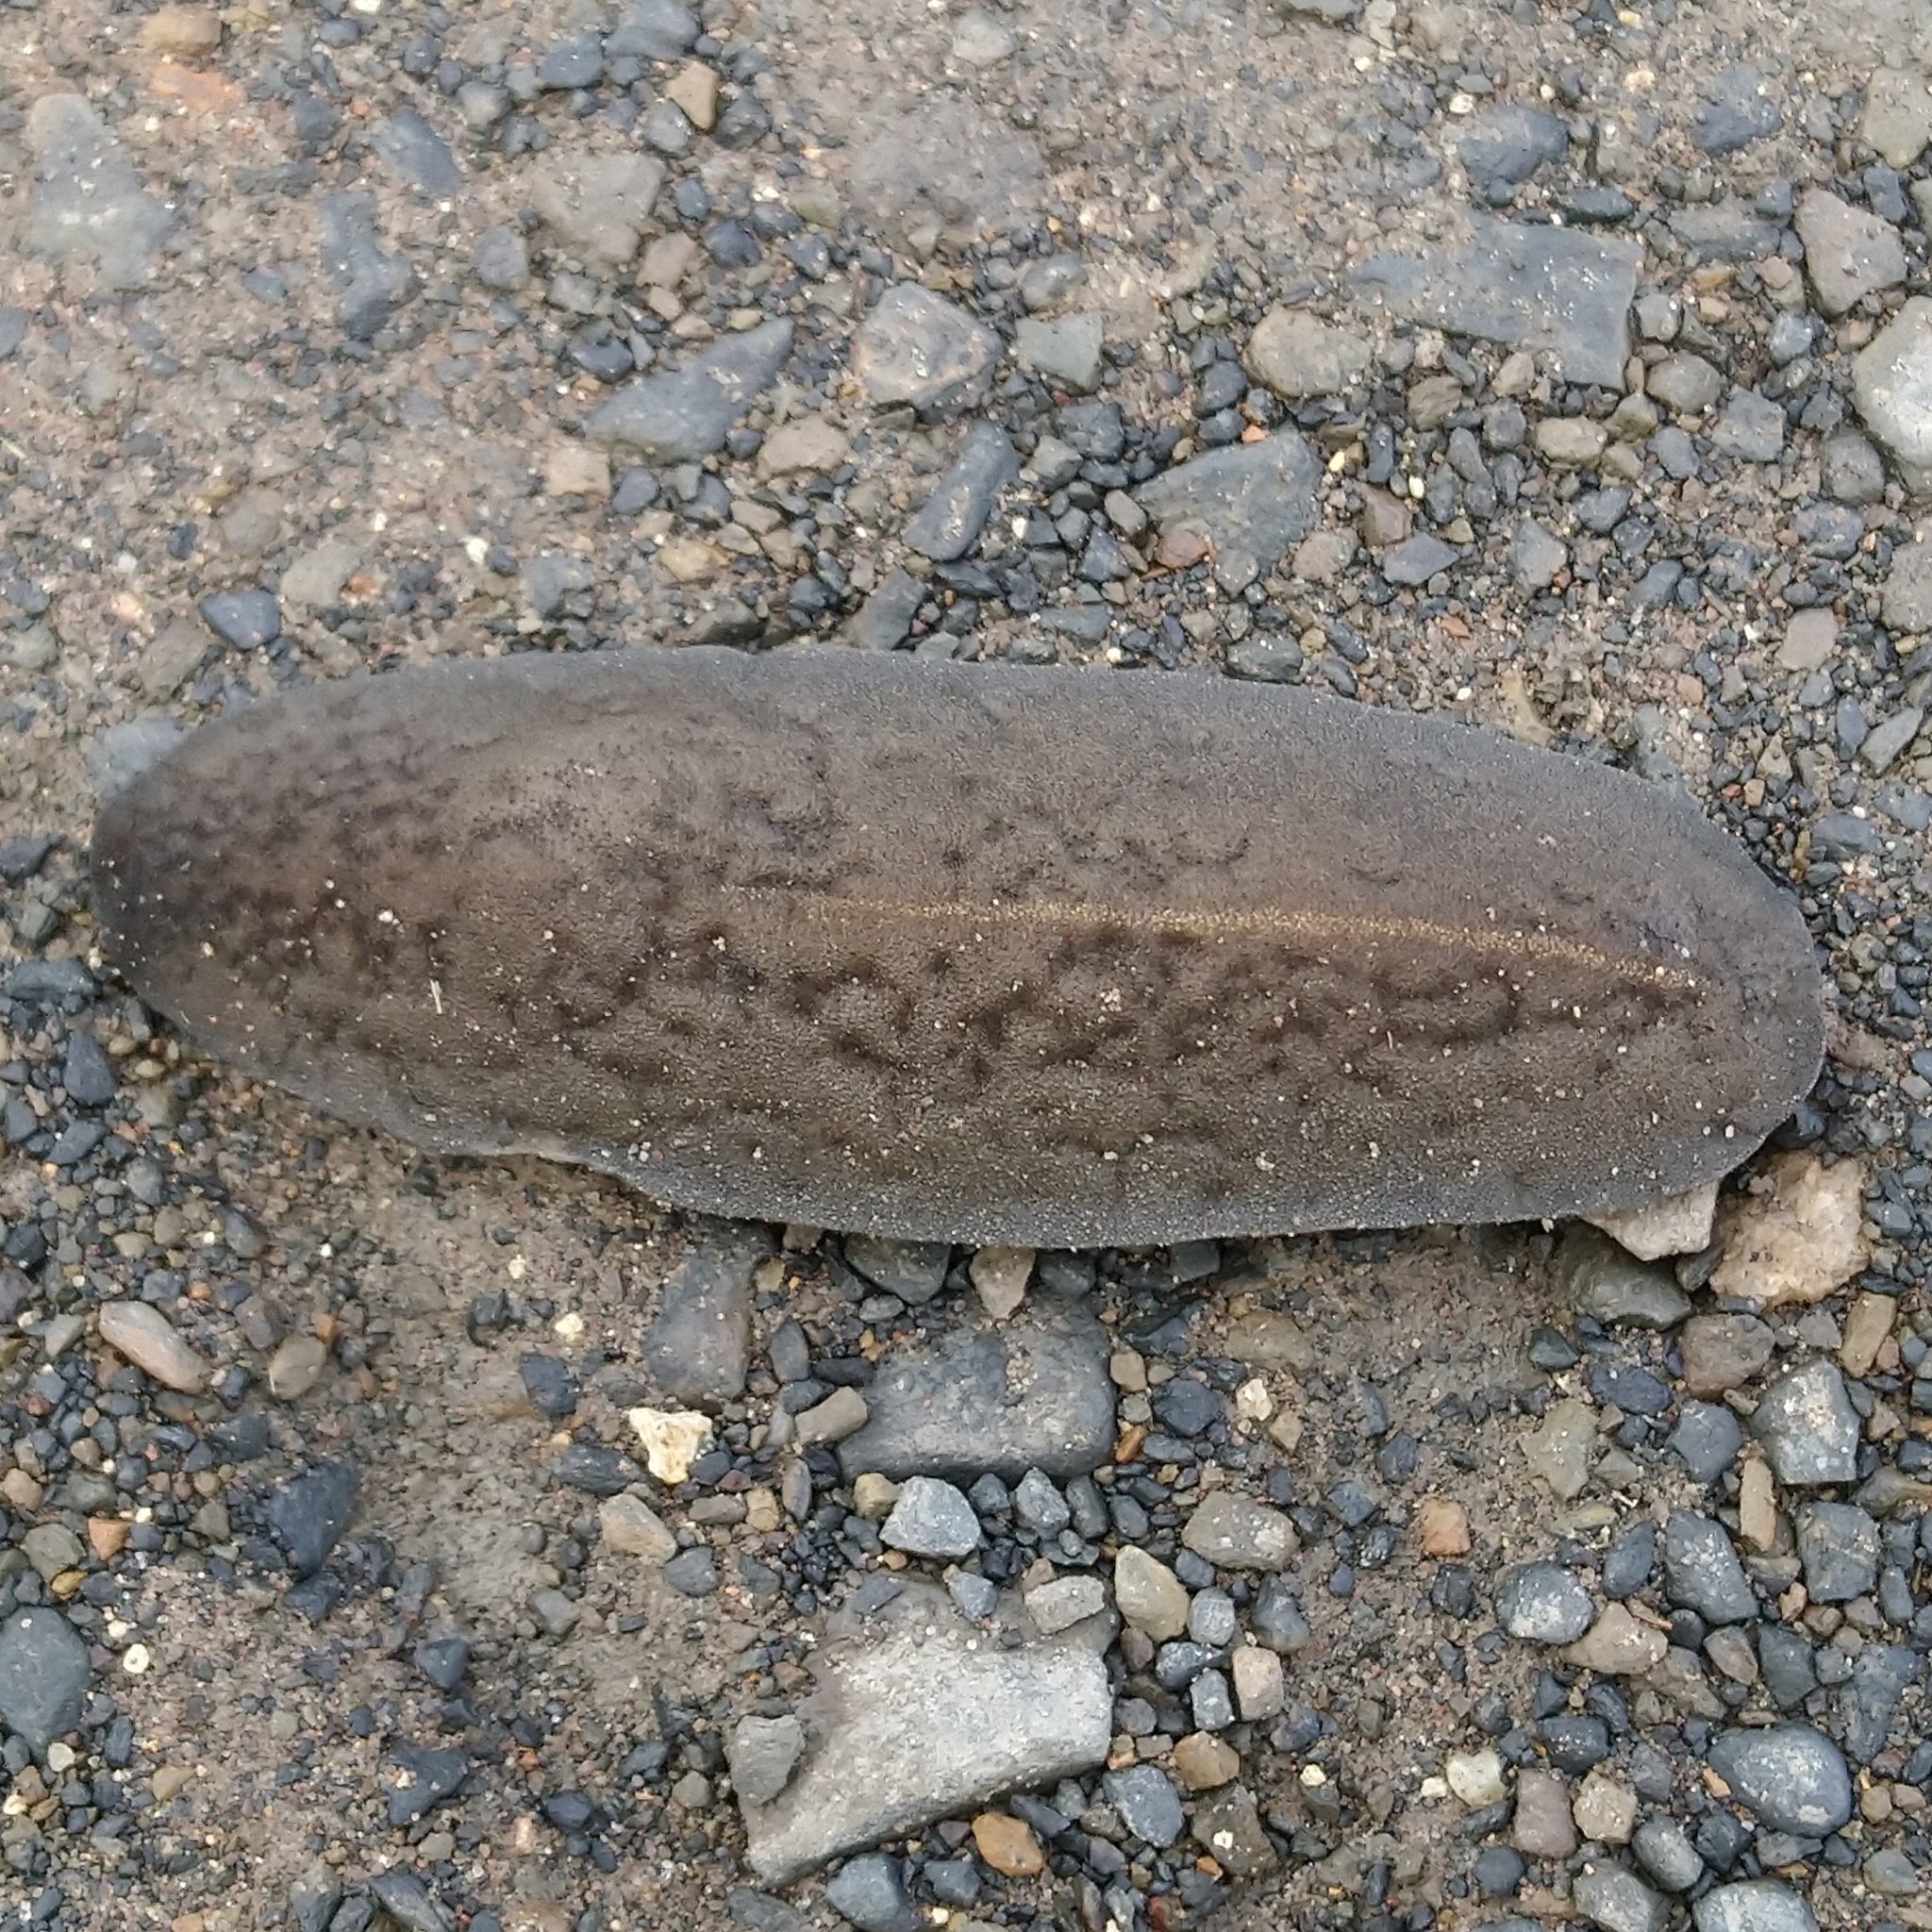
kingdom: Animalia
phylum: Mollusca
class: Gastropoda
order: Systellommatophora
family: Veronicellidae
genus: Laevicaulis
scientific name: Laevicaulis alte
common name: Tropical leatherleaf
